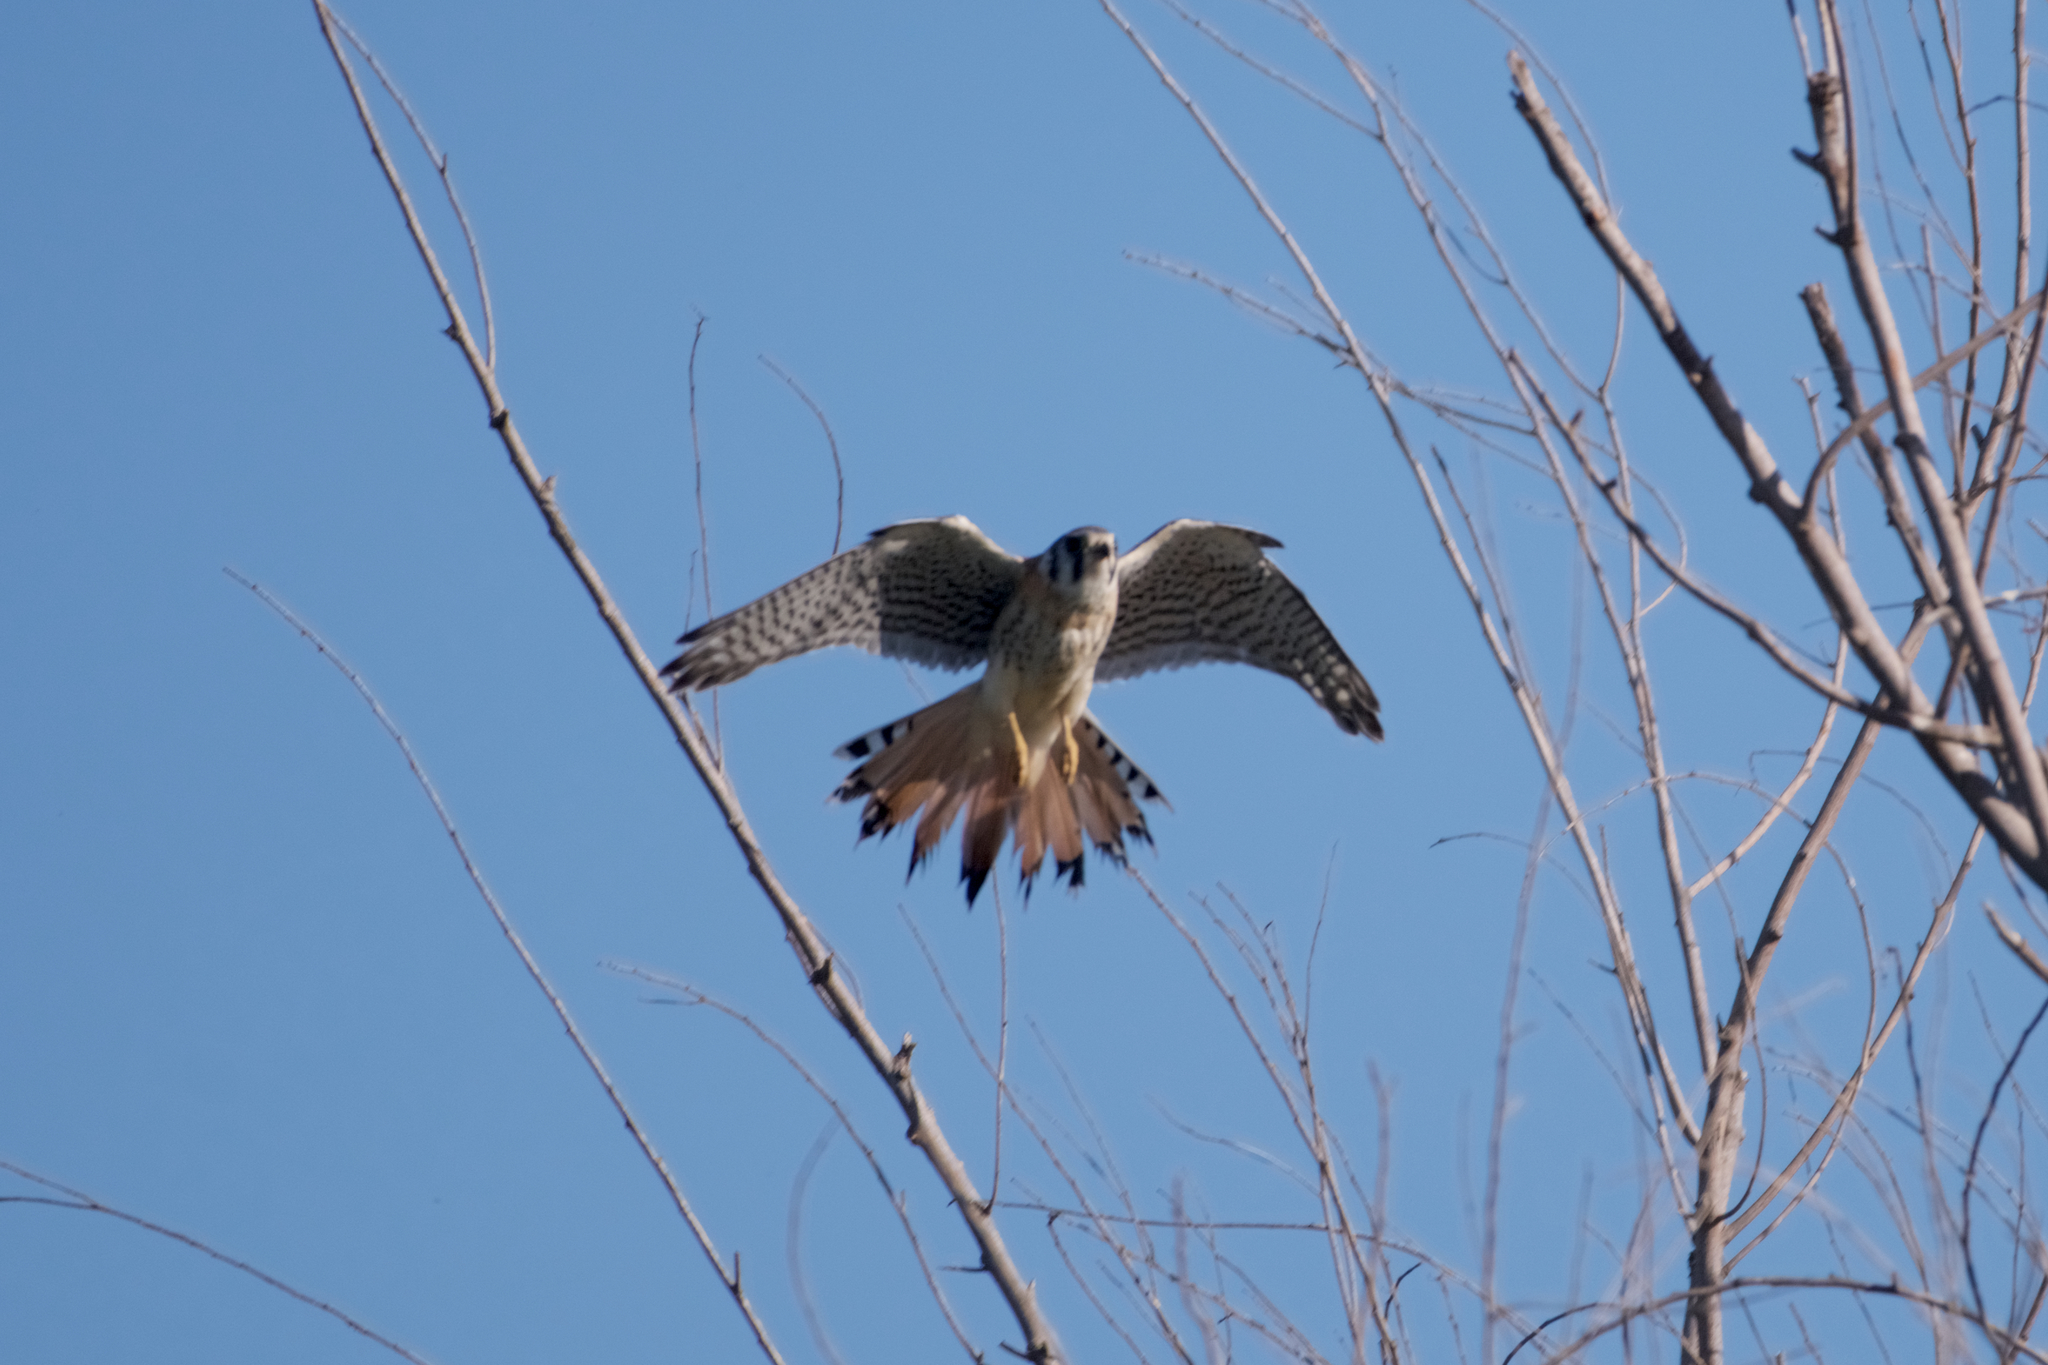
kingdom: Animalia
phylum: Chordata
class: Aves
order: Falconiformes
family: Falconidae
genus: Falco
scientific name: Falco sparverius
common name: American kestrel
